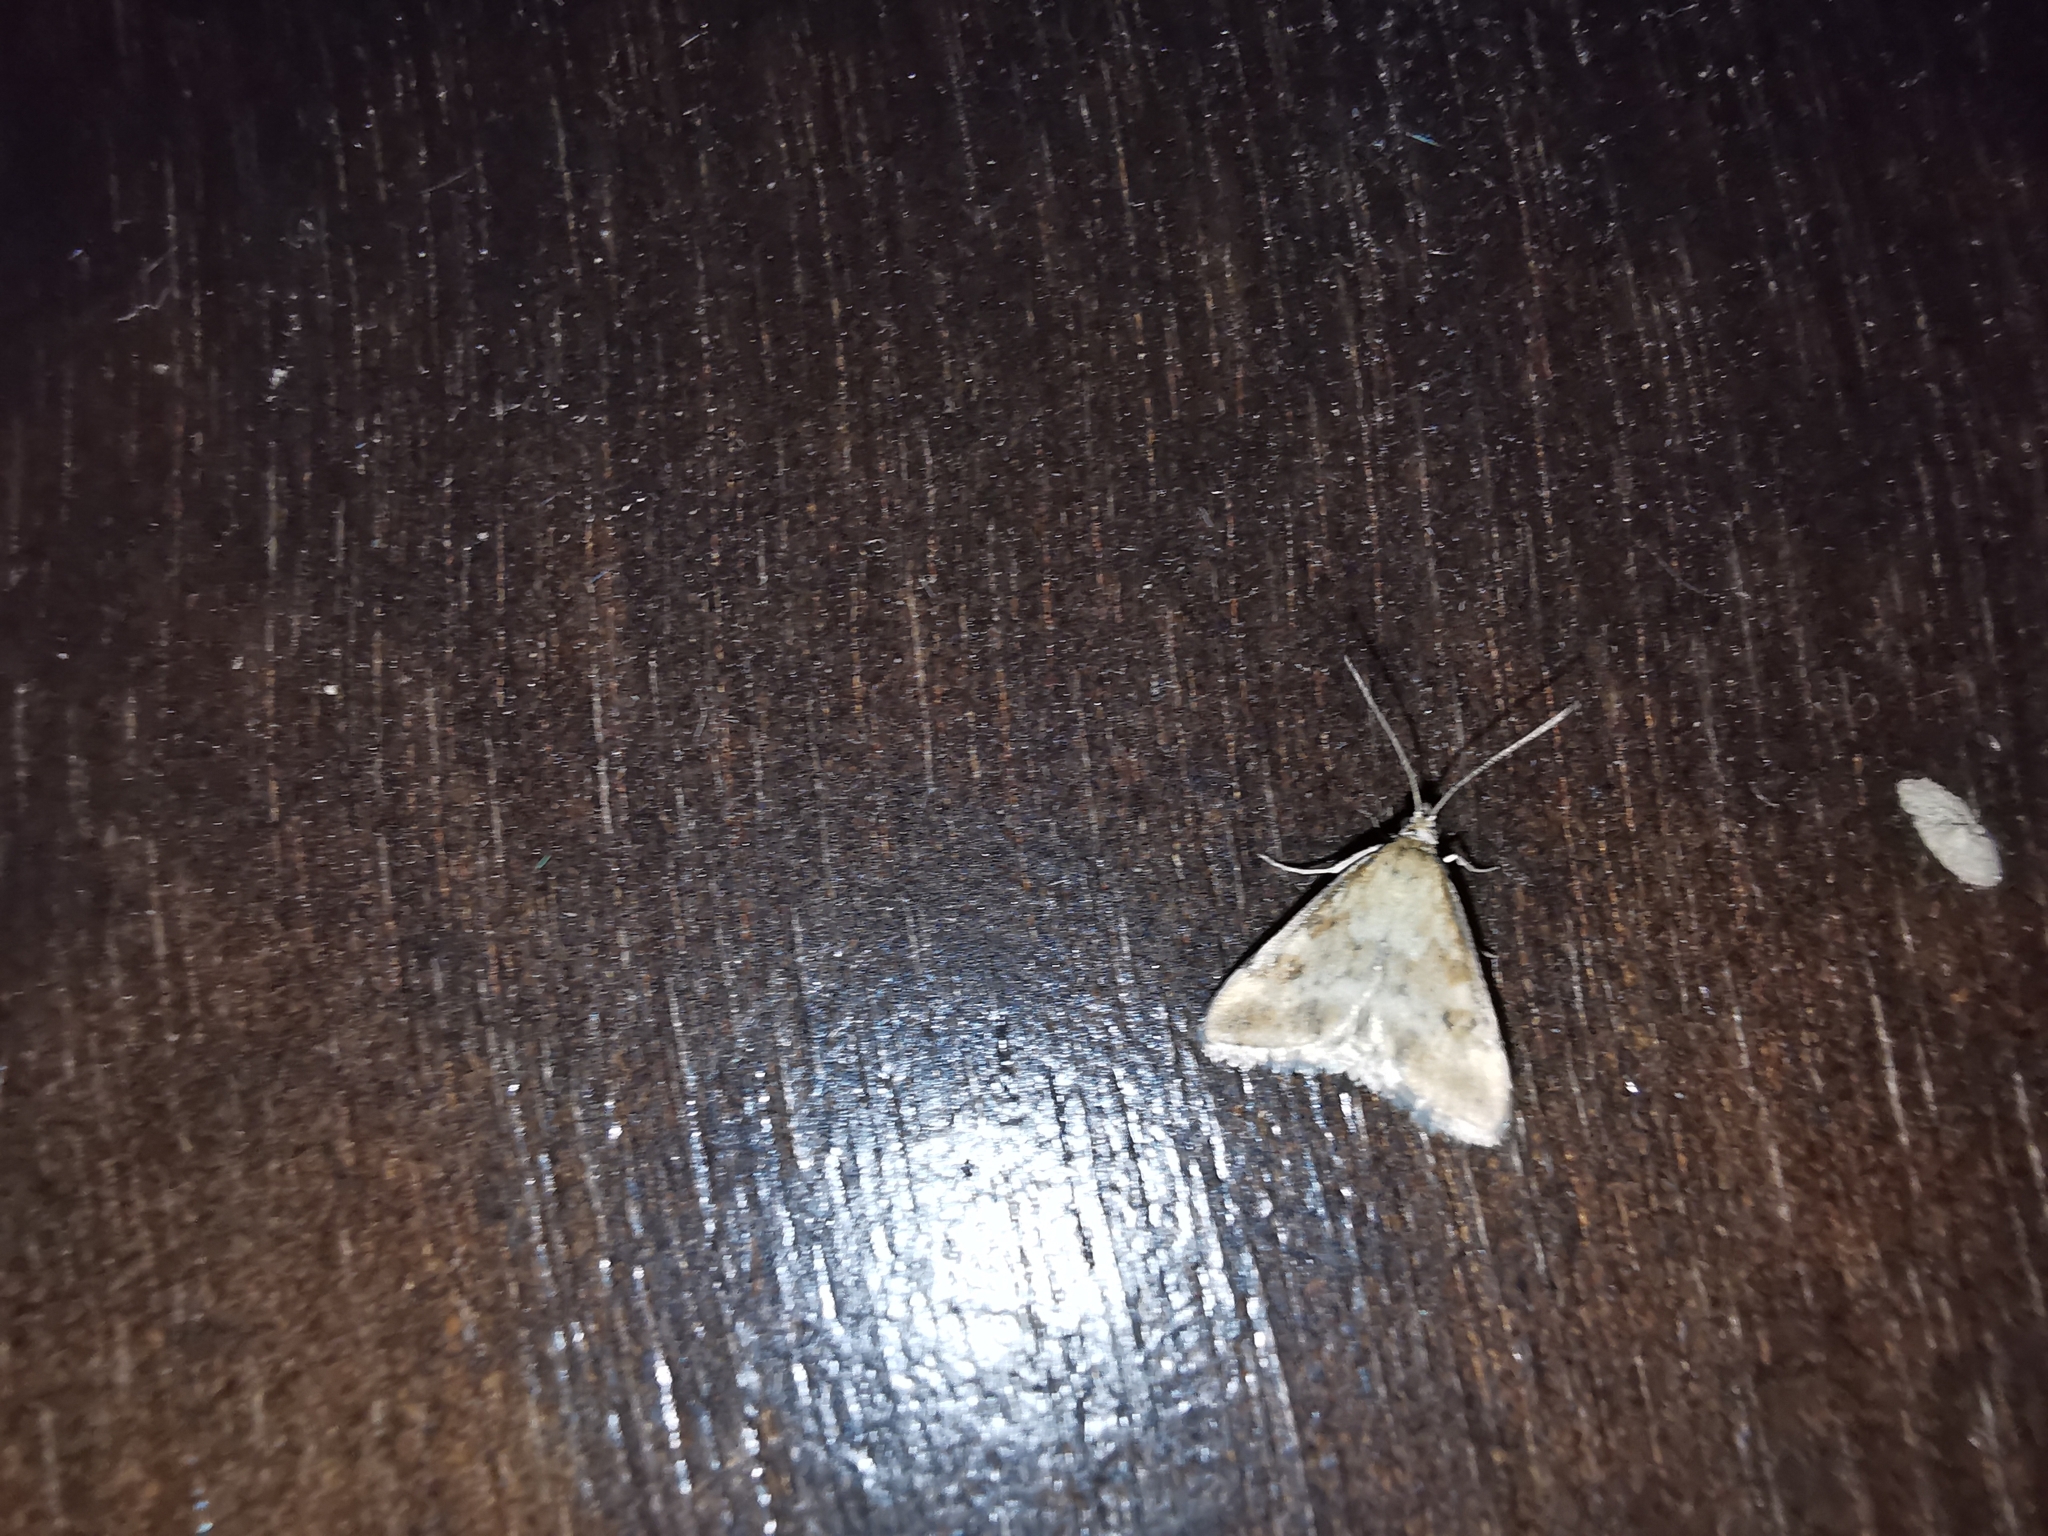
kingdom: Animalia
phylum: Arthropoda
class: Insecta
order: Lepidoptera
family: Crambidae
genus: Pyrausta
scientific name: Pyrausta despicata
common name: Straw-barred pearl
